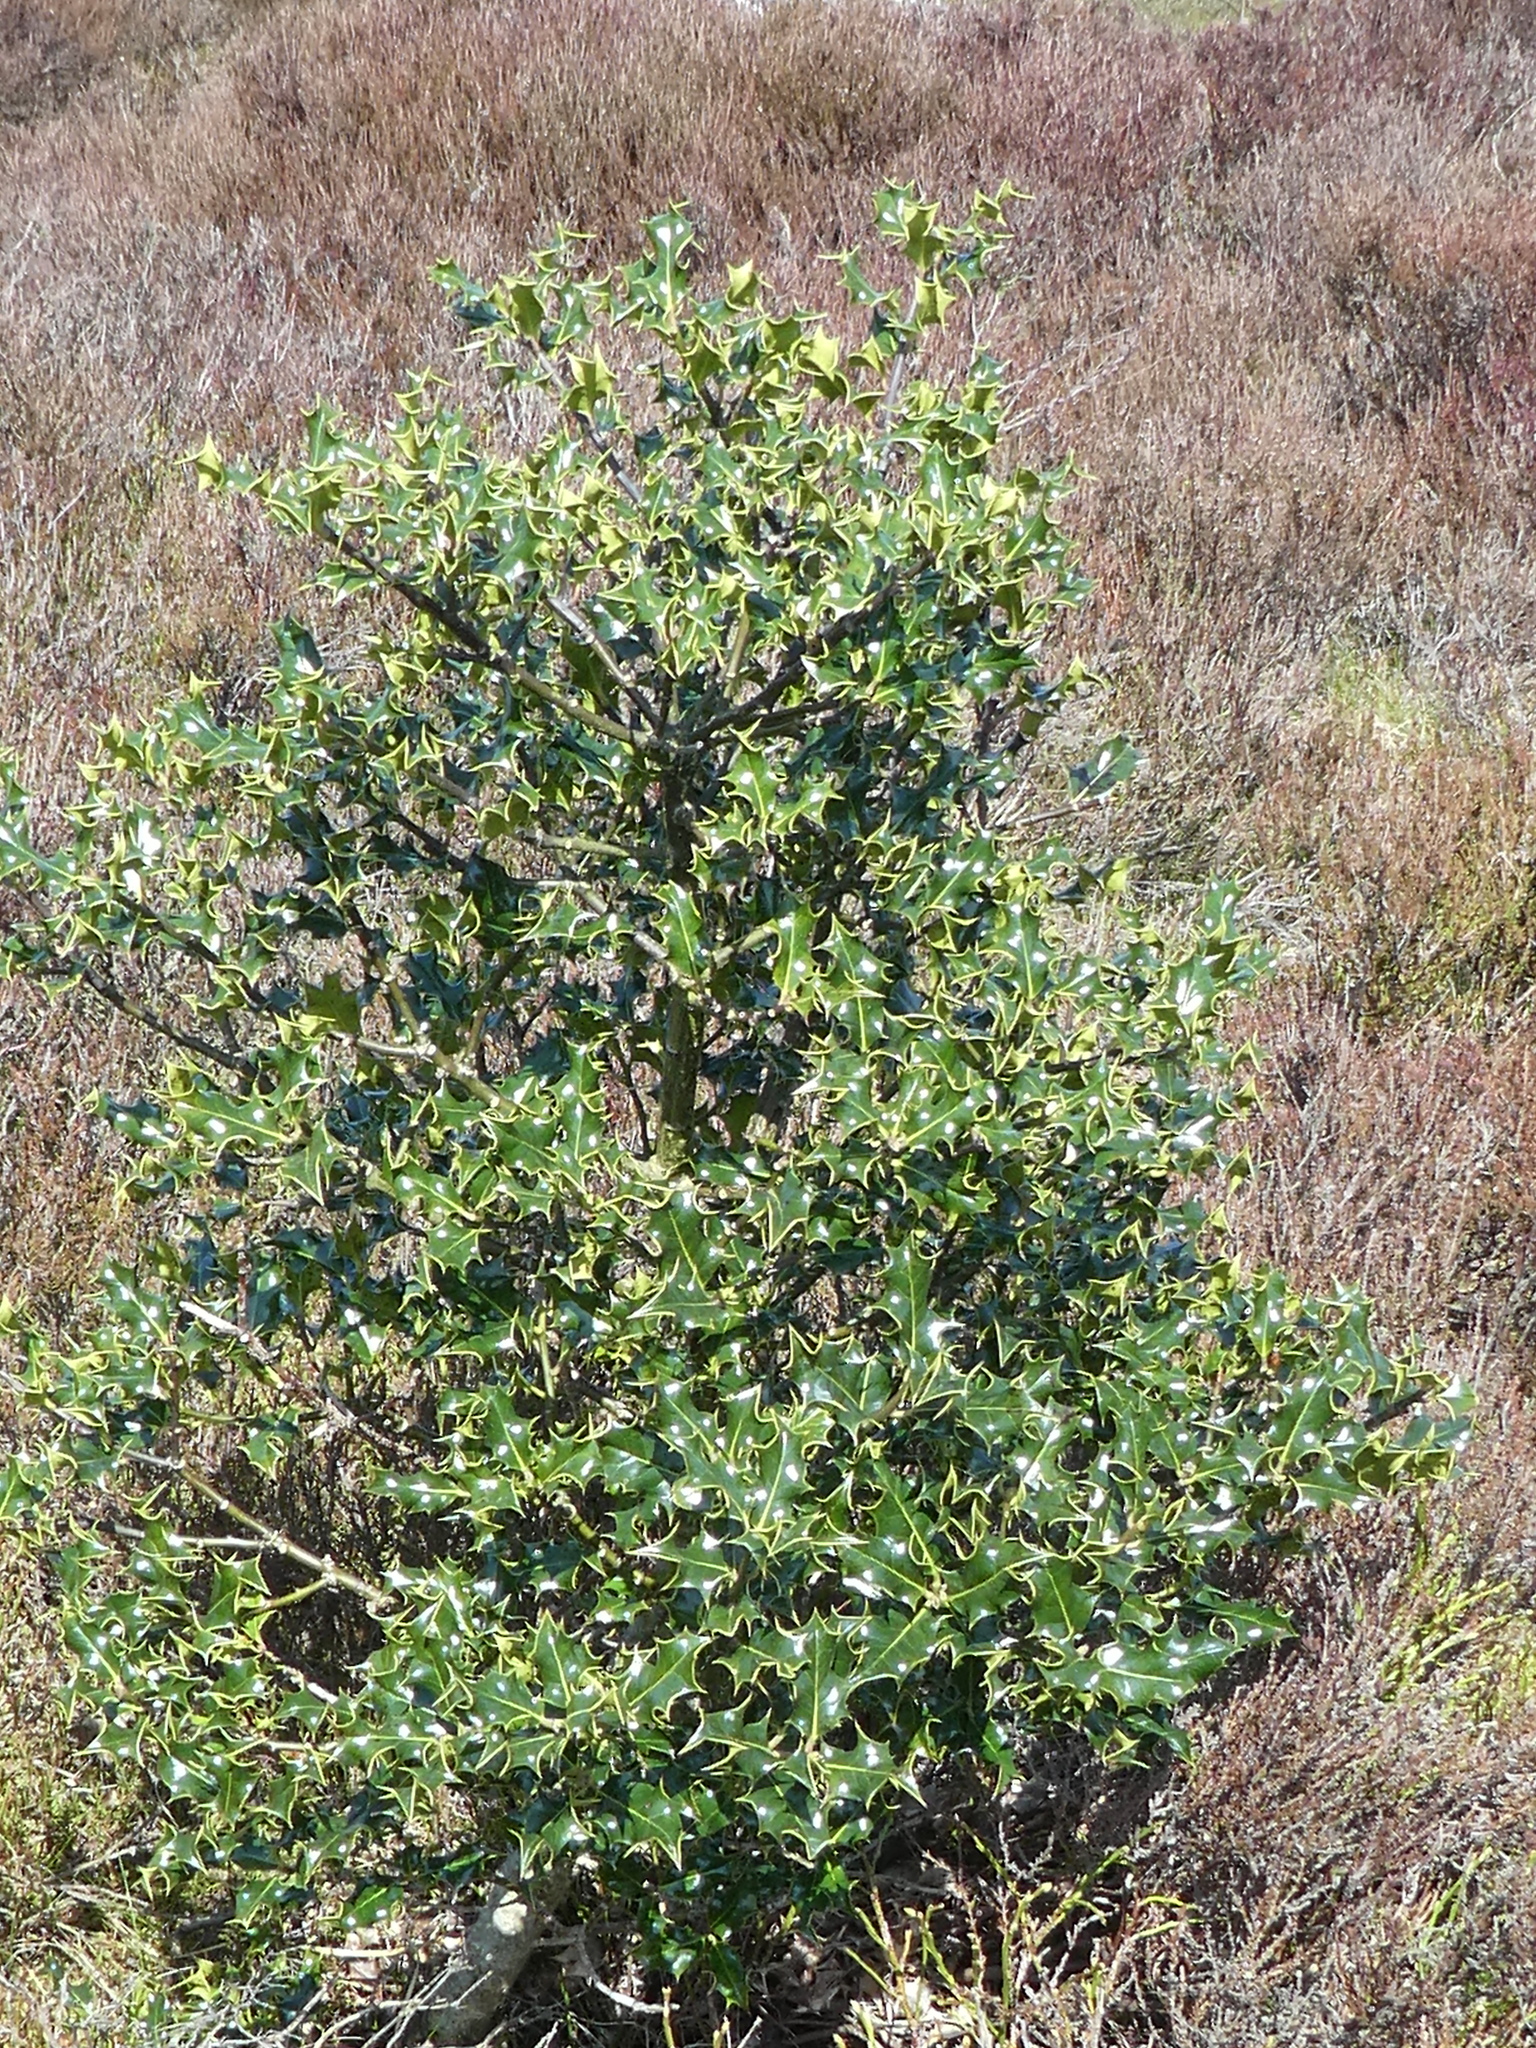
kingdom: Plantae
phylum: Tracheophyta
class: Magnoliopsida
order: Aquifoliales
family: Aquifoliaceae
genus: Ilex
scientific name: Ilex aquifolium
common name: English holly
